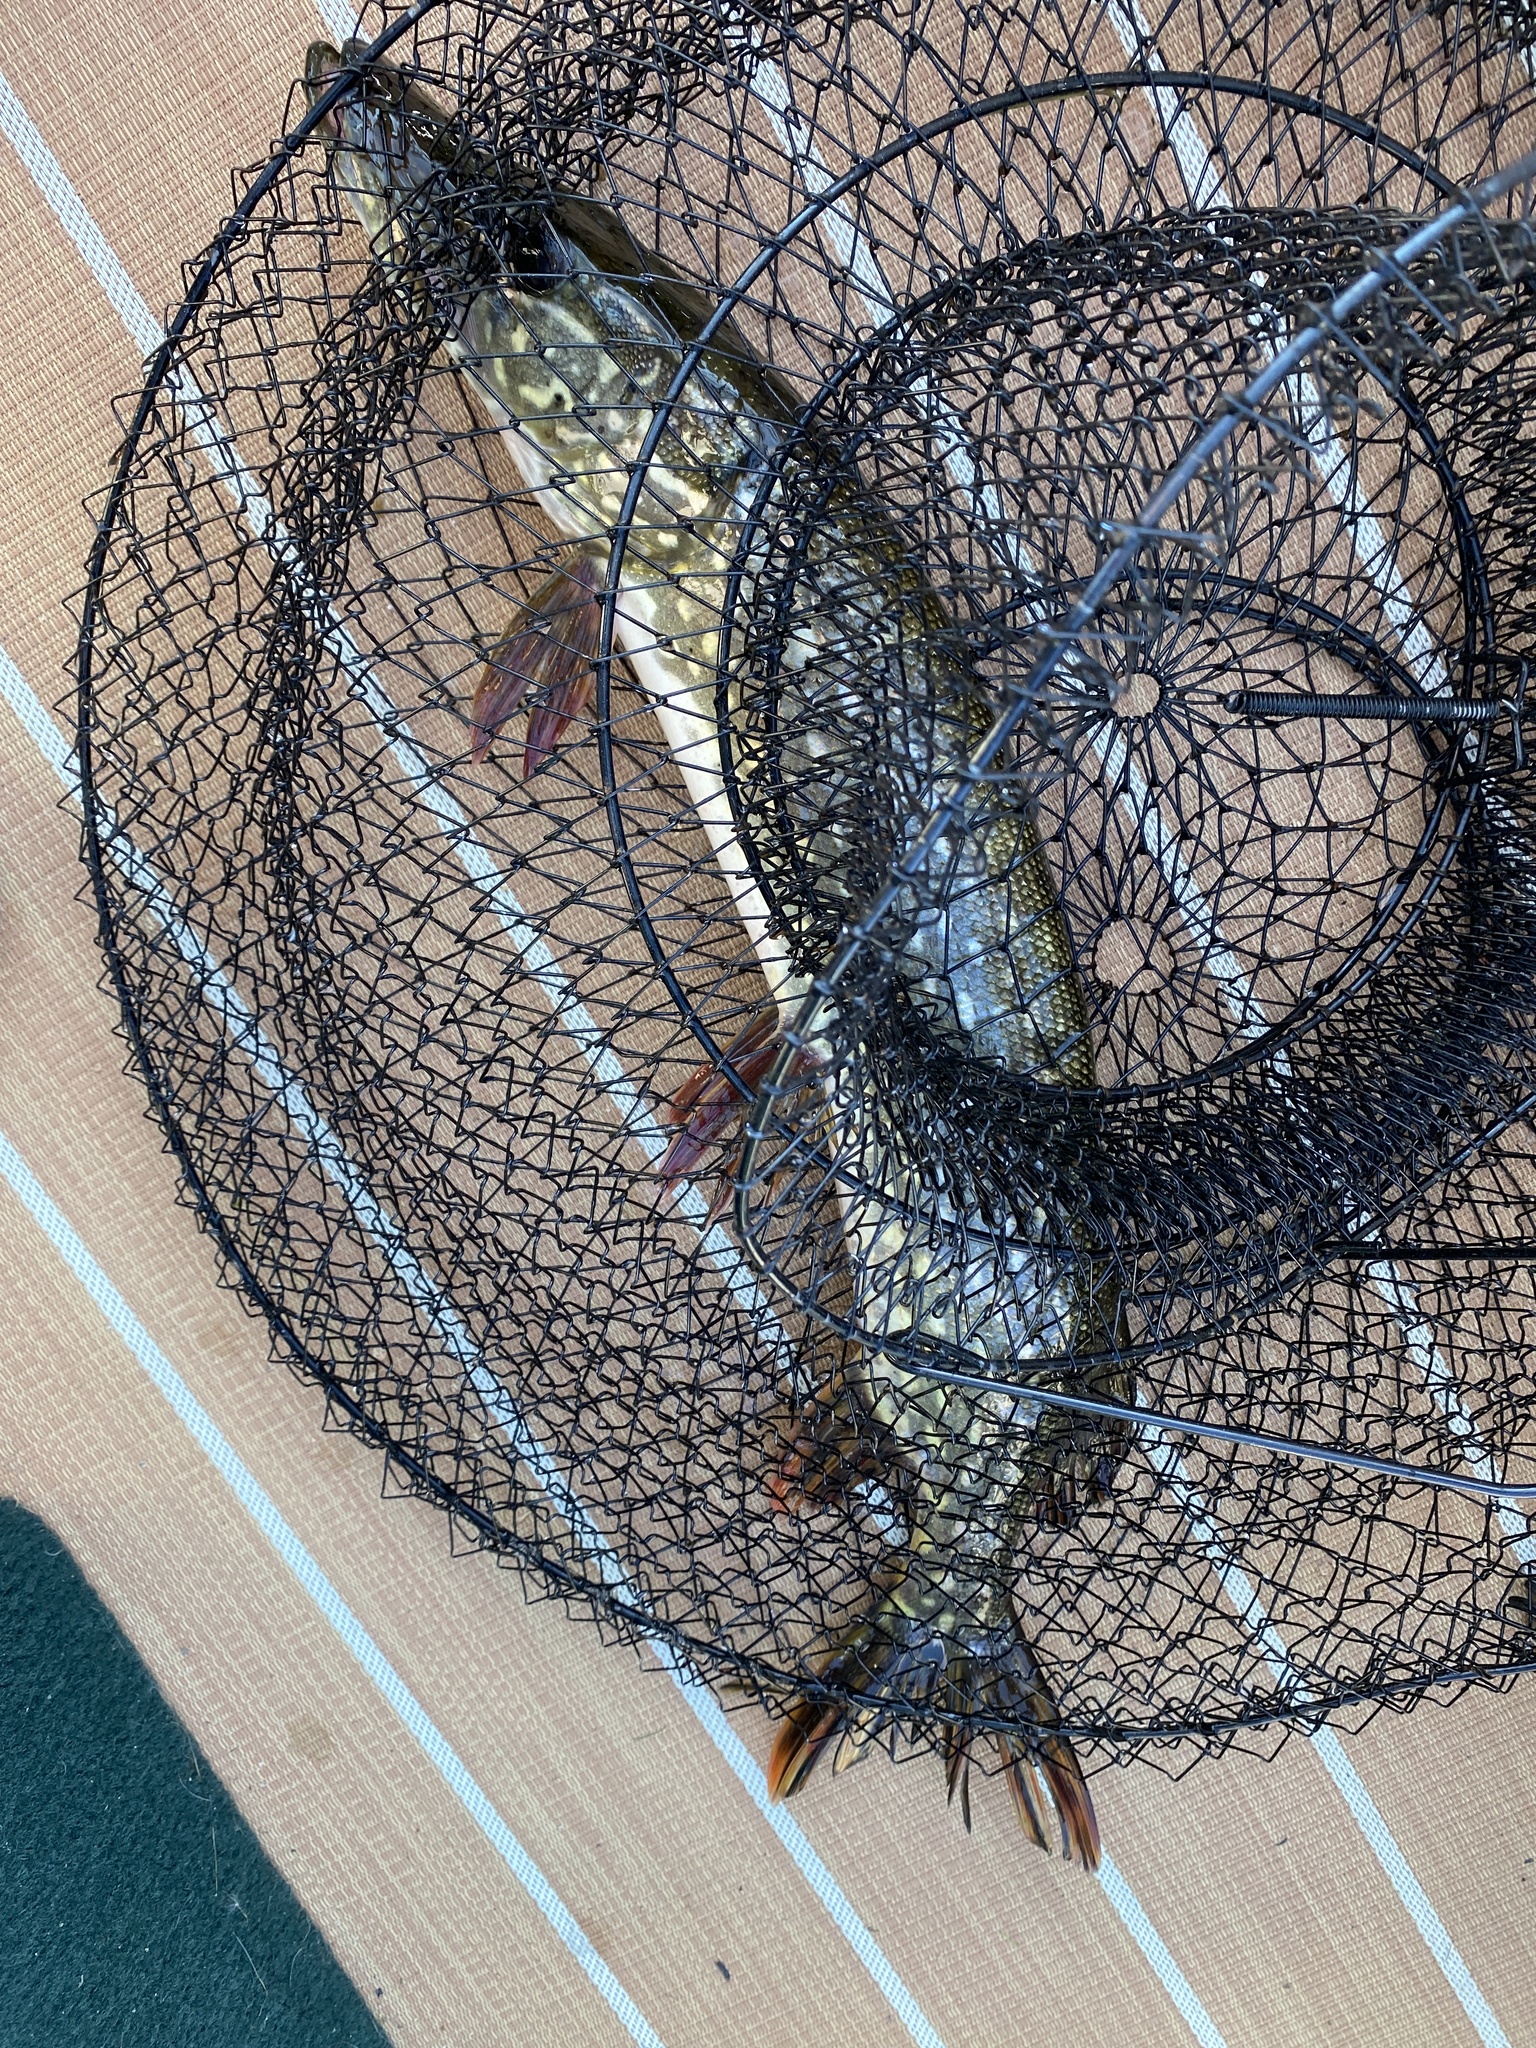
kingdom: Animalia
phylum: Chordata
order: Esociformes
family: Esocidae
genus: Esox
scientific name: Esox lucius
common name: Northern pike
